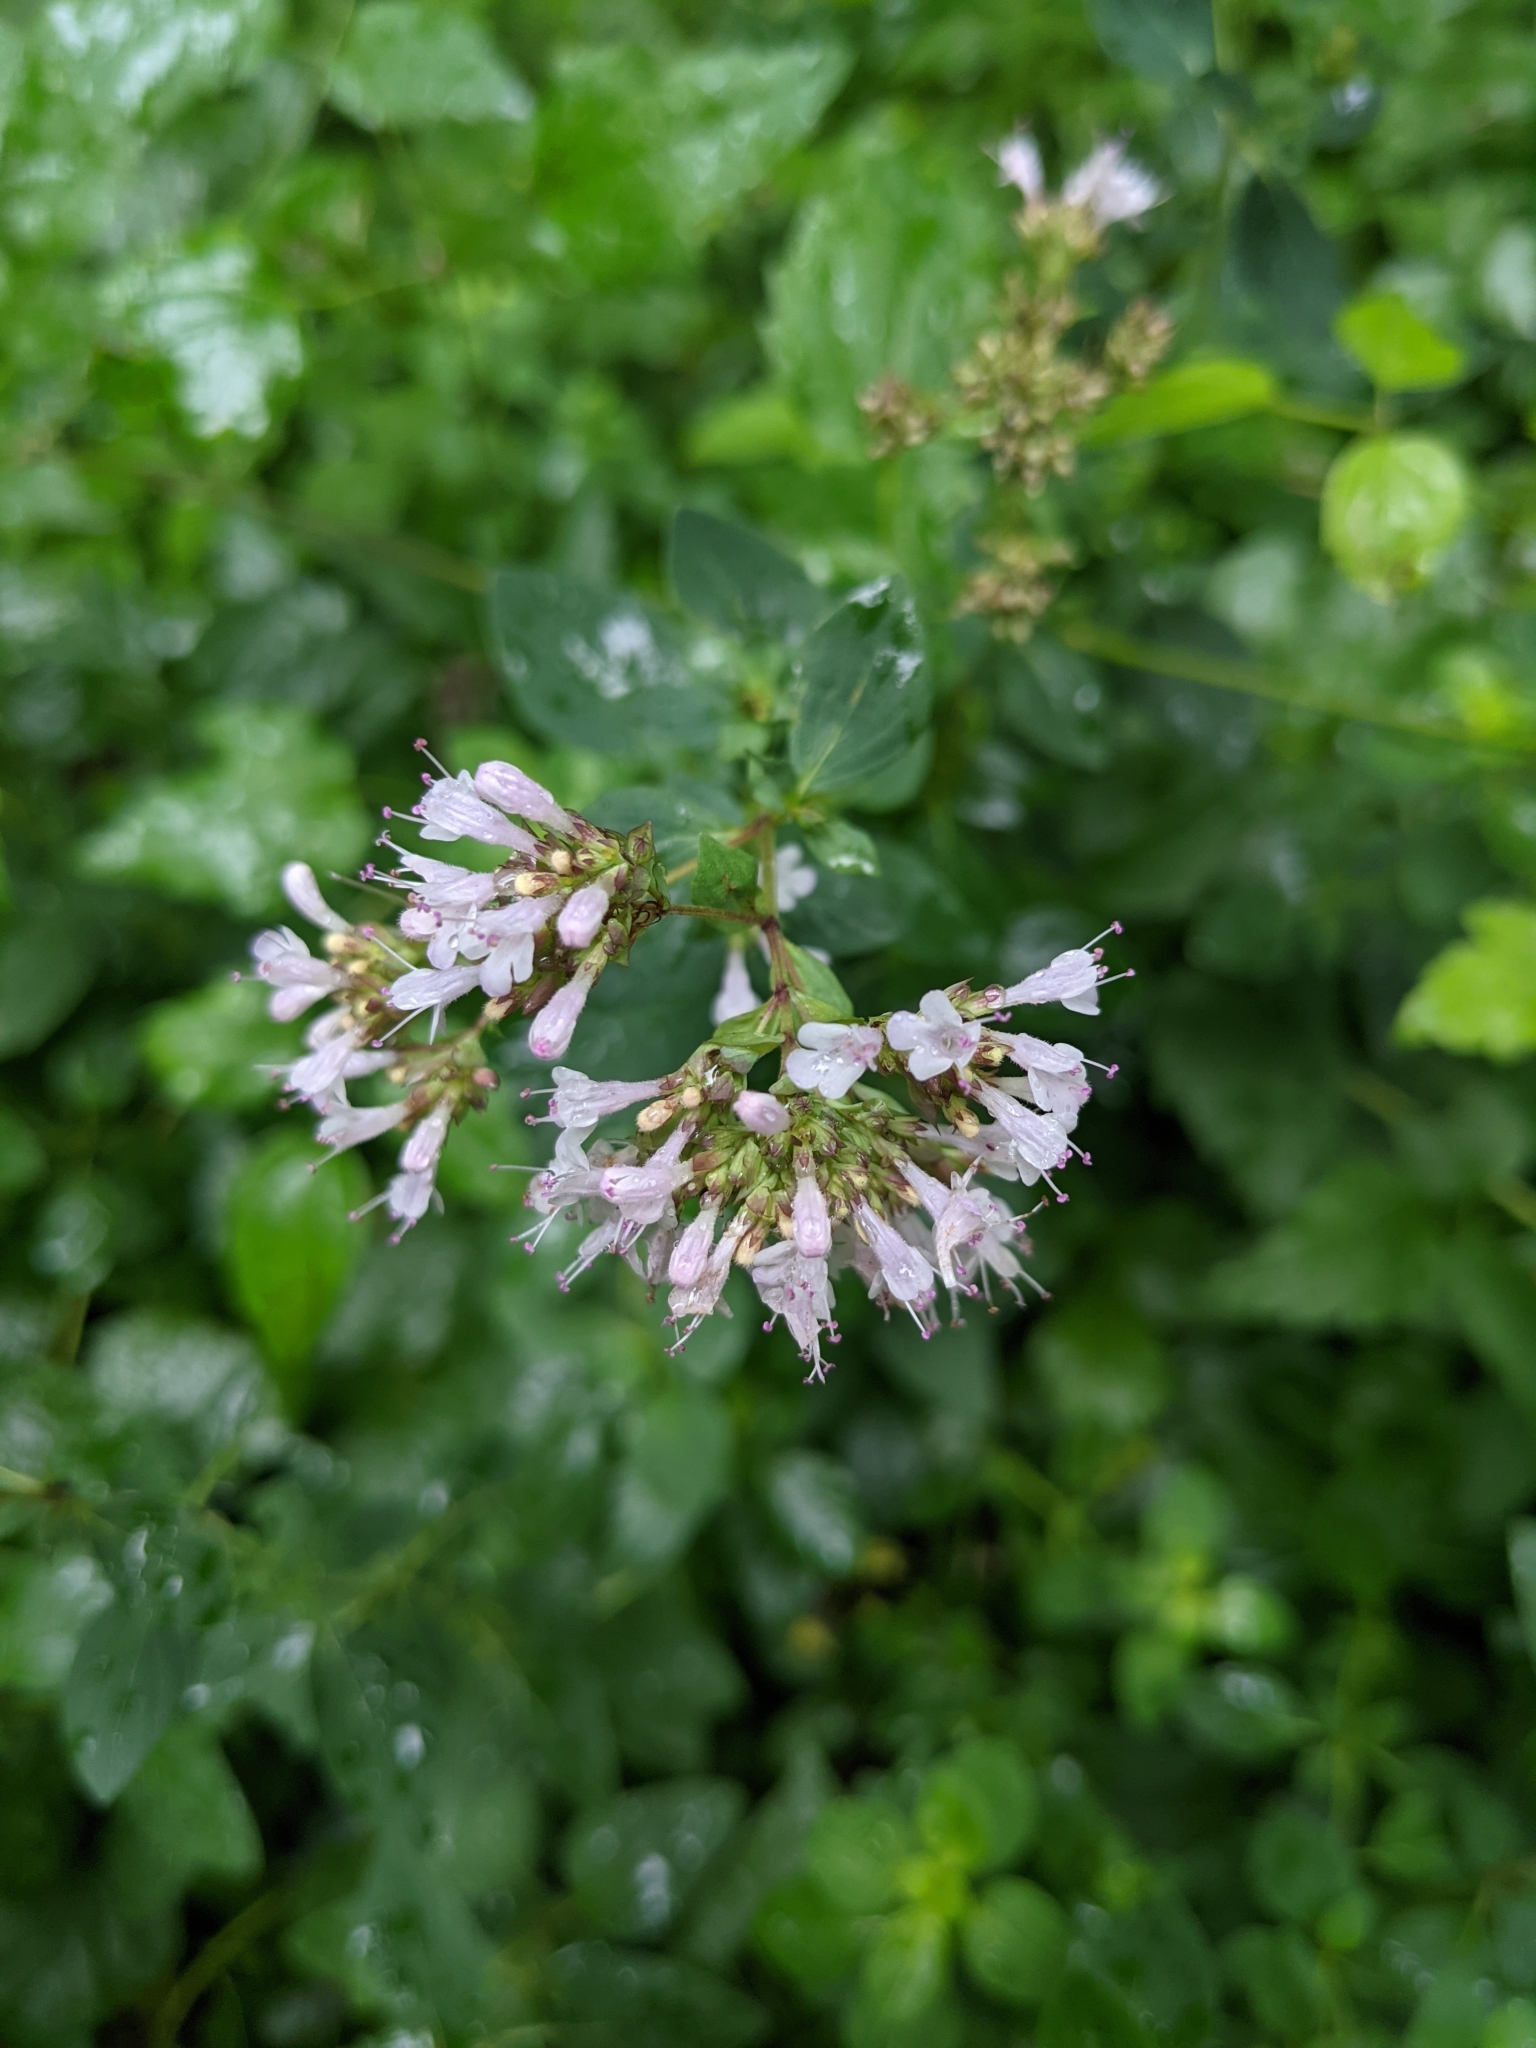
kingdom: Plantae
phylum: Tracheophyta
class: Magnoliopsida
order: Lamiales
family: Lamiaceae
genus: Origanum
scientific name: Origanum vulgare
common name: Wild marjoram
